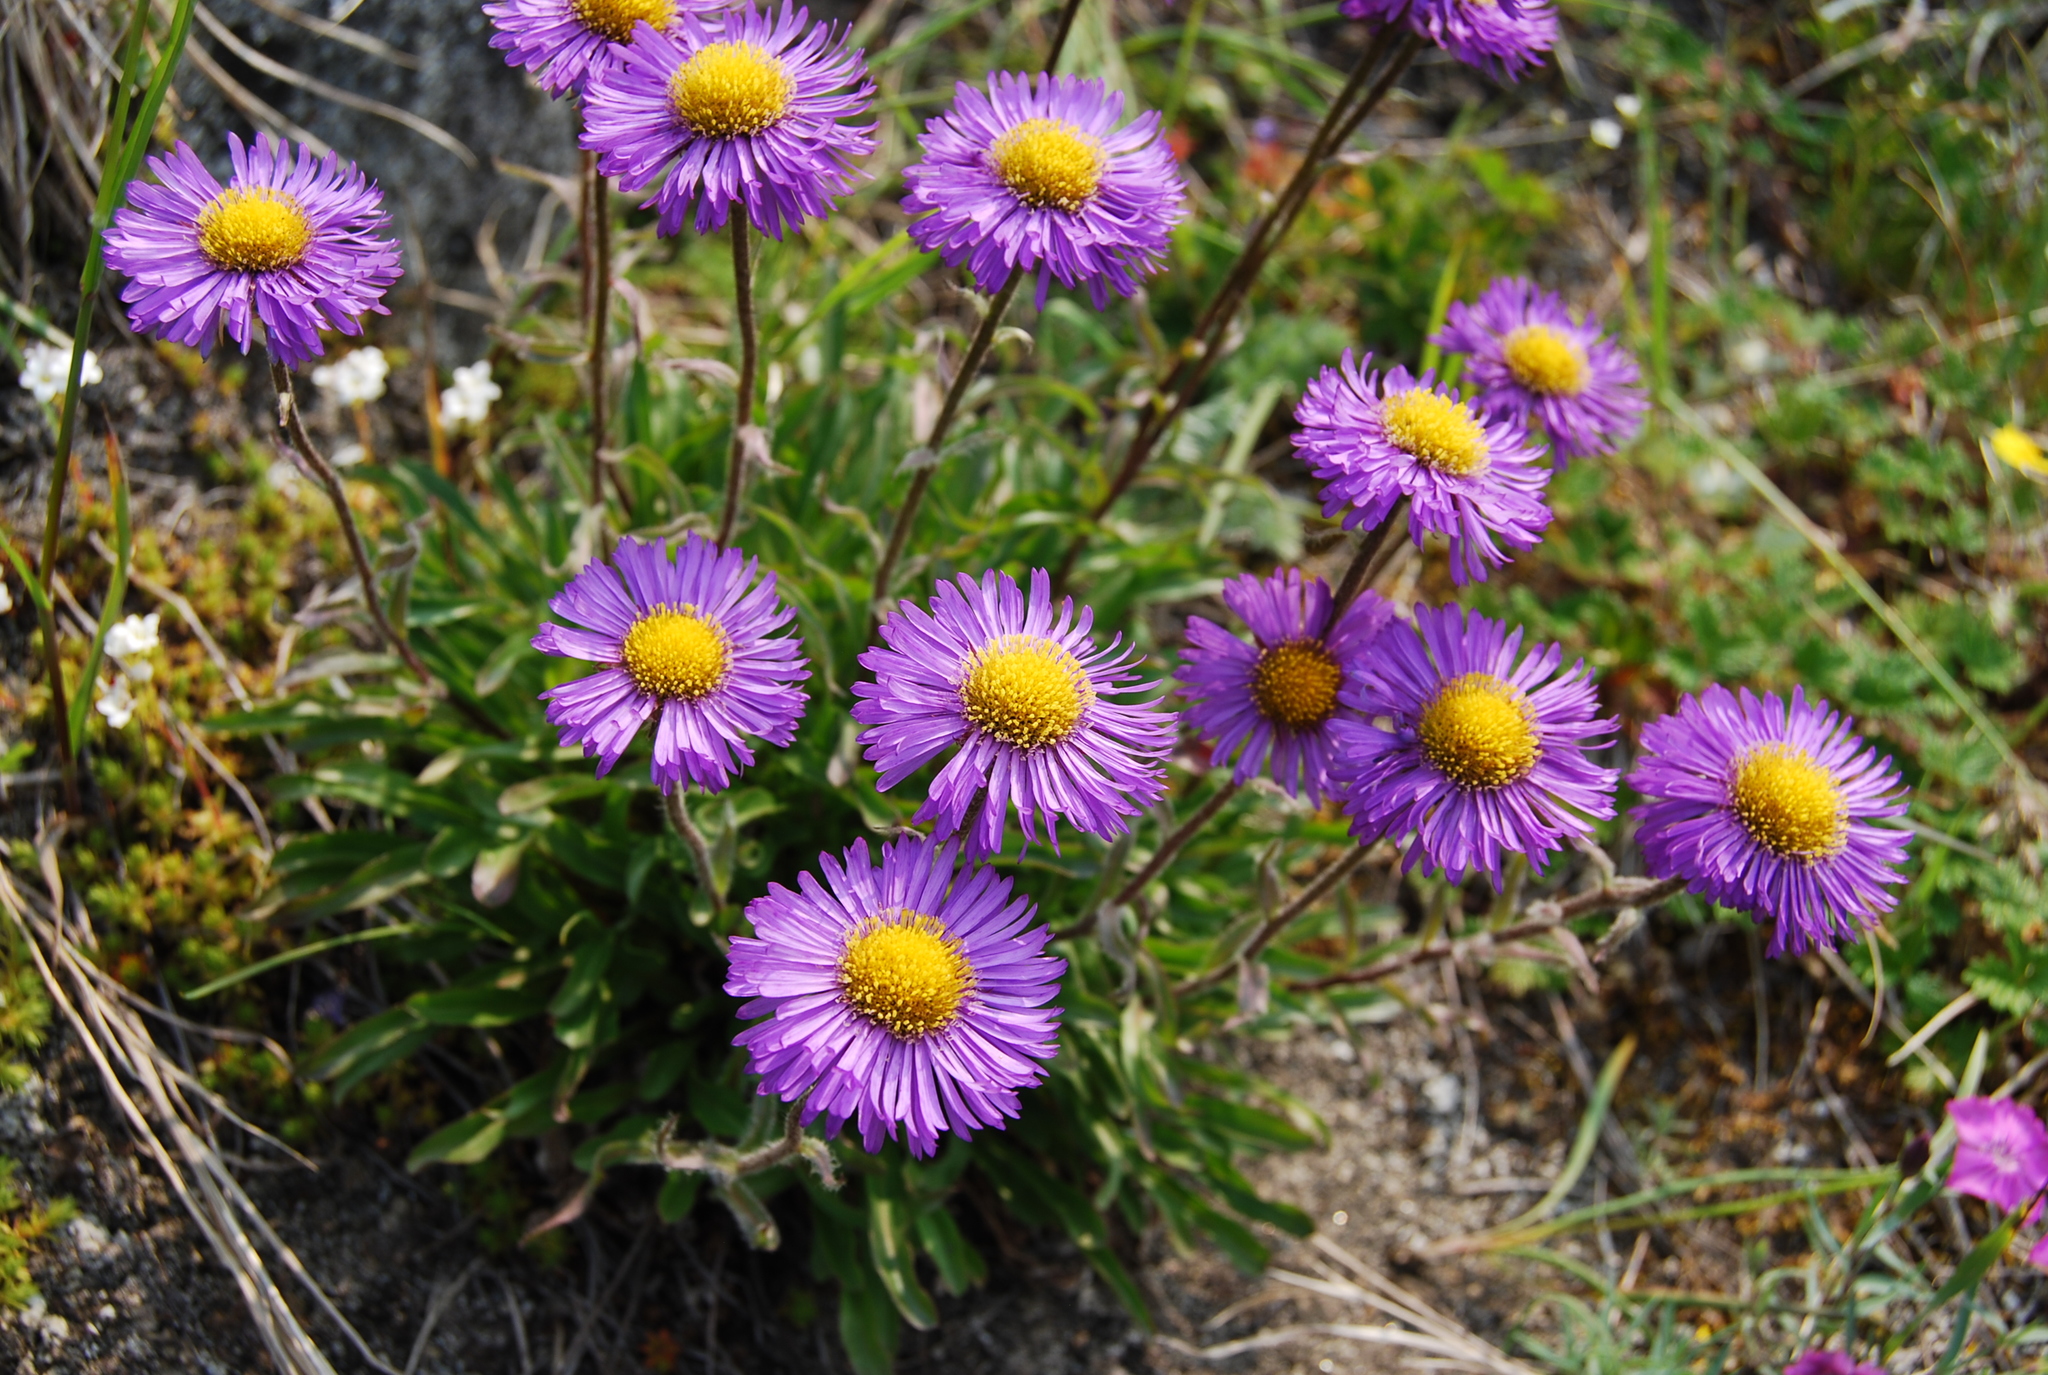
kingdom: Plantae
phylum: Tracheophyta
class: Magnoliopsida
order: Asterales
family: Asteraceae
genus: Erigeron
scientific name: Erigeron thunbergii
